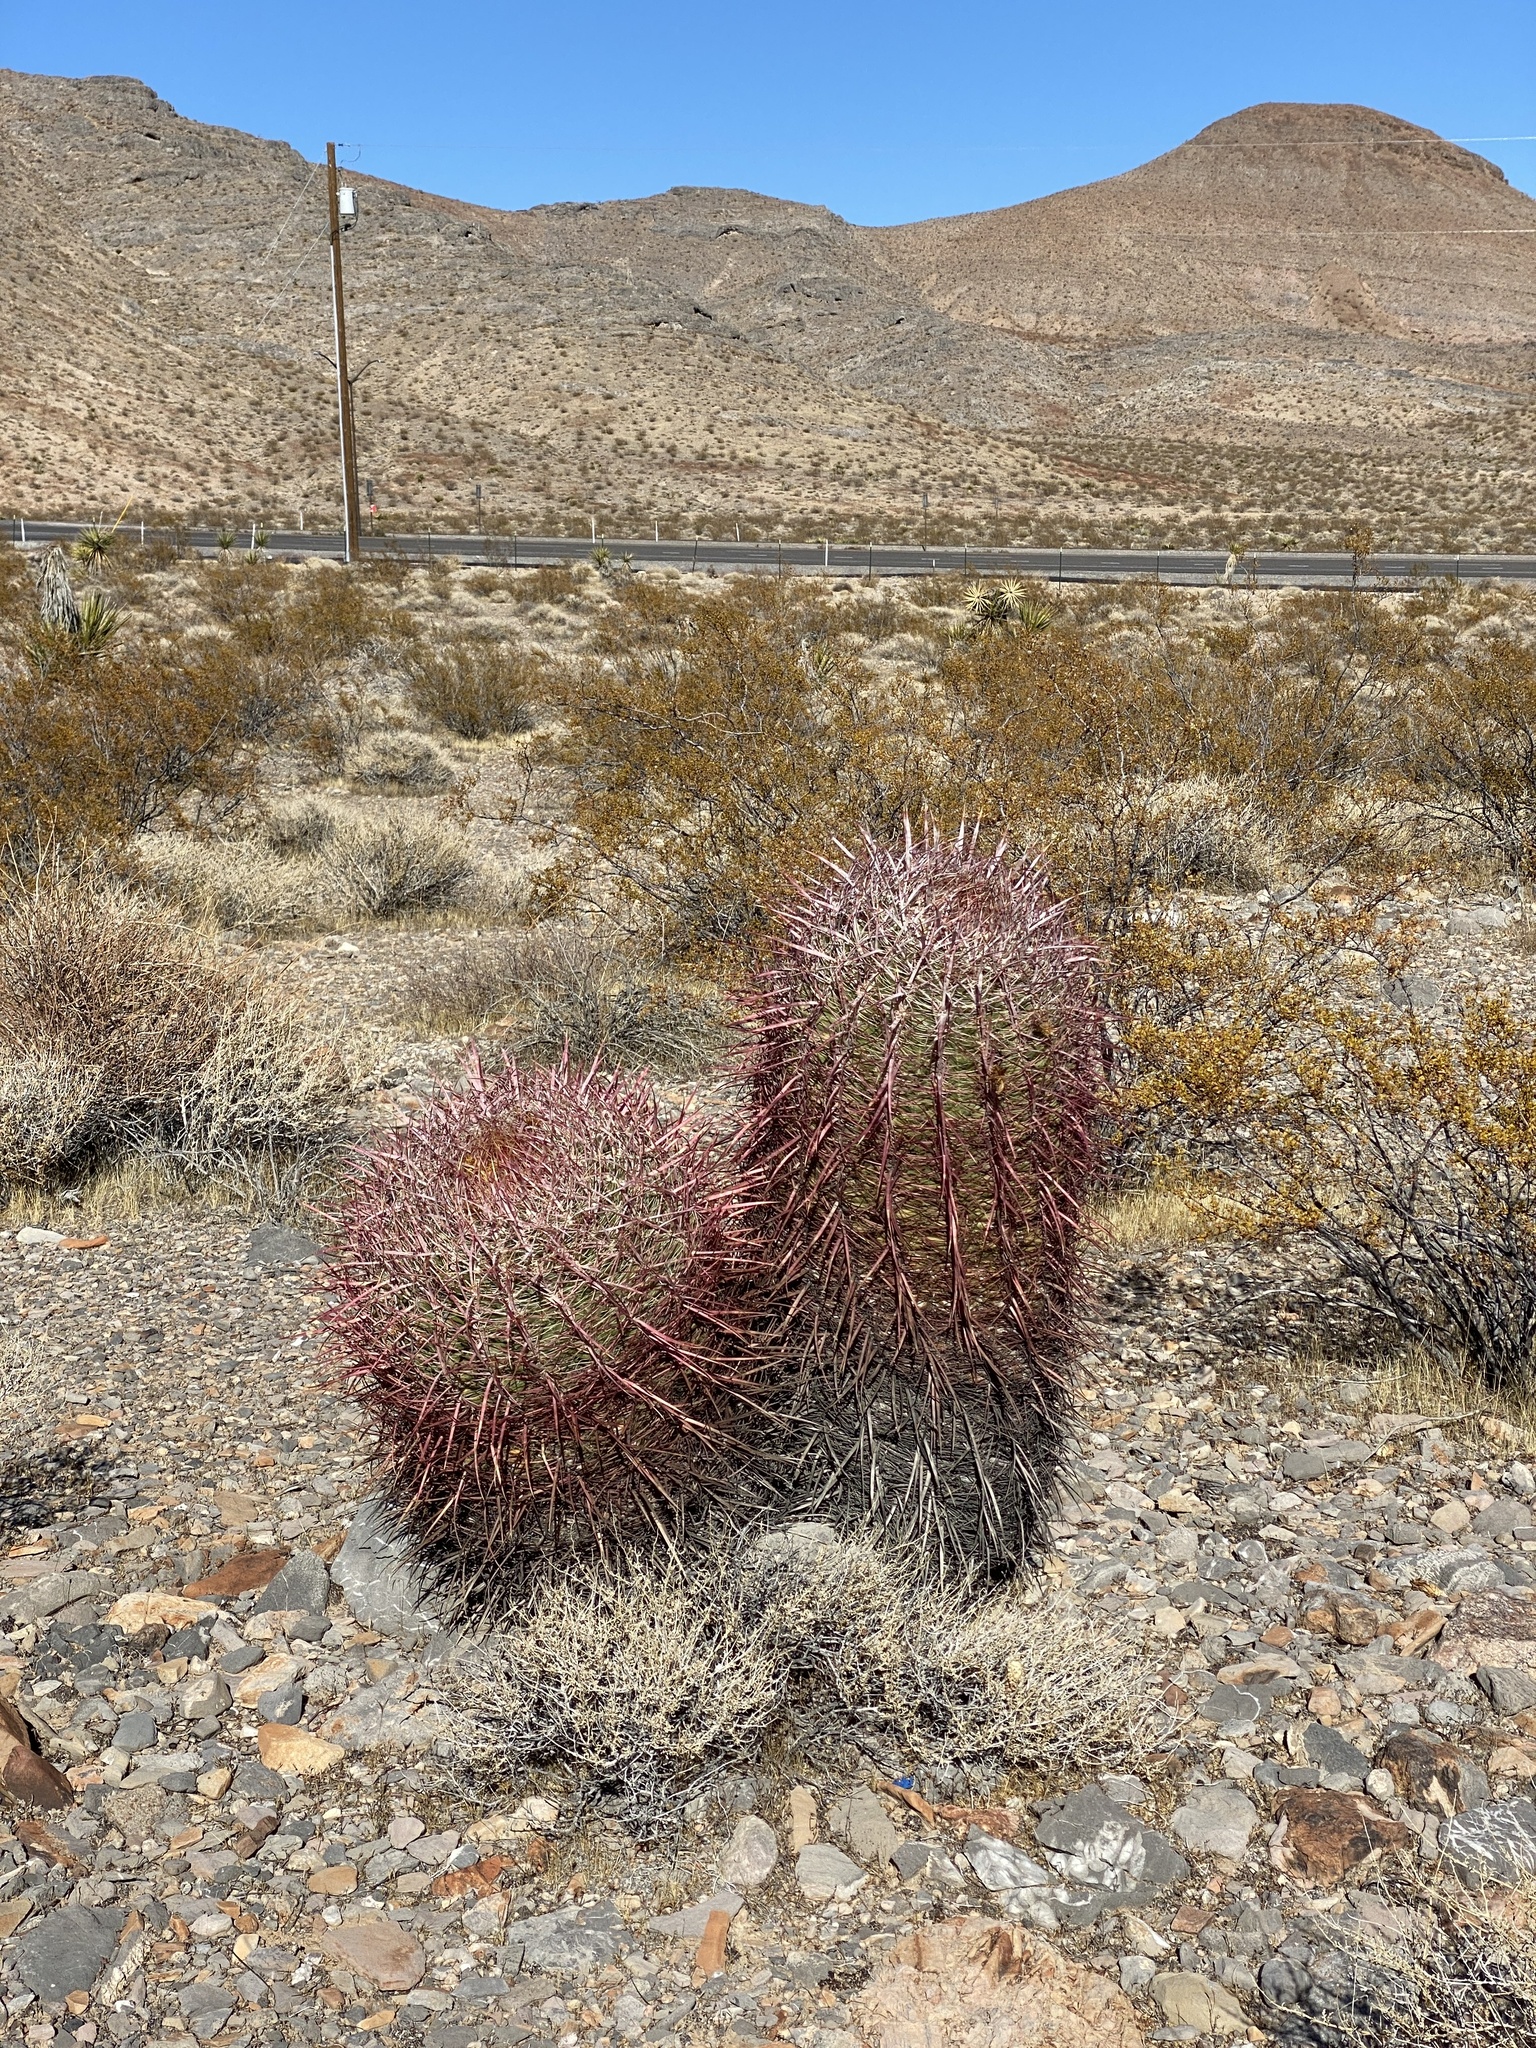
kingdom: Plantae
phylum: Tracheophyta
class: Magnoliopsida
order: Caryophyllales
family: Cactaceae
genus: Ferocactus
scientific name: Ferocactus cylindraceus
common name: California barrel cactus
